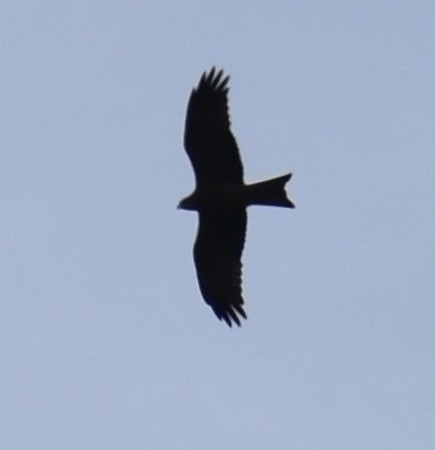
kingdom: Animalia
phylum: Chordata
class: Aves
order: Accipitriformes
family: Accipitridae
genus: Milvus
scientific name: Milvus migrans
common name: Black kite
